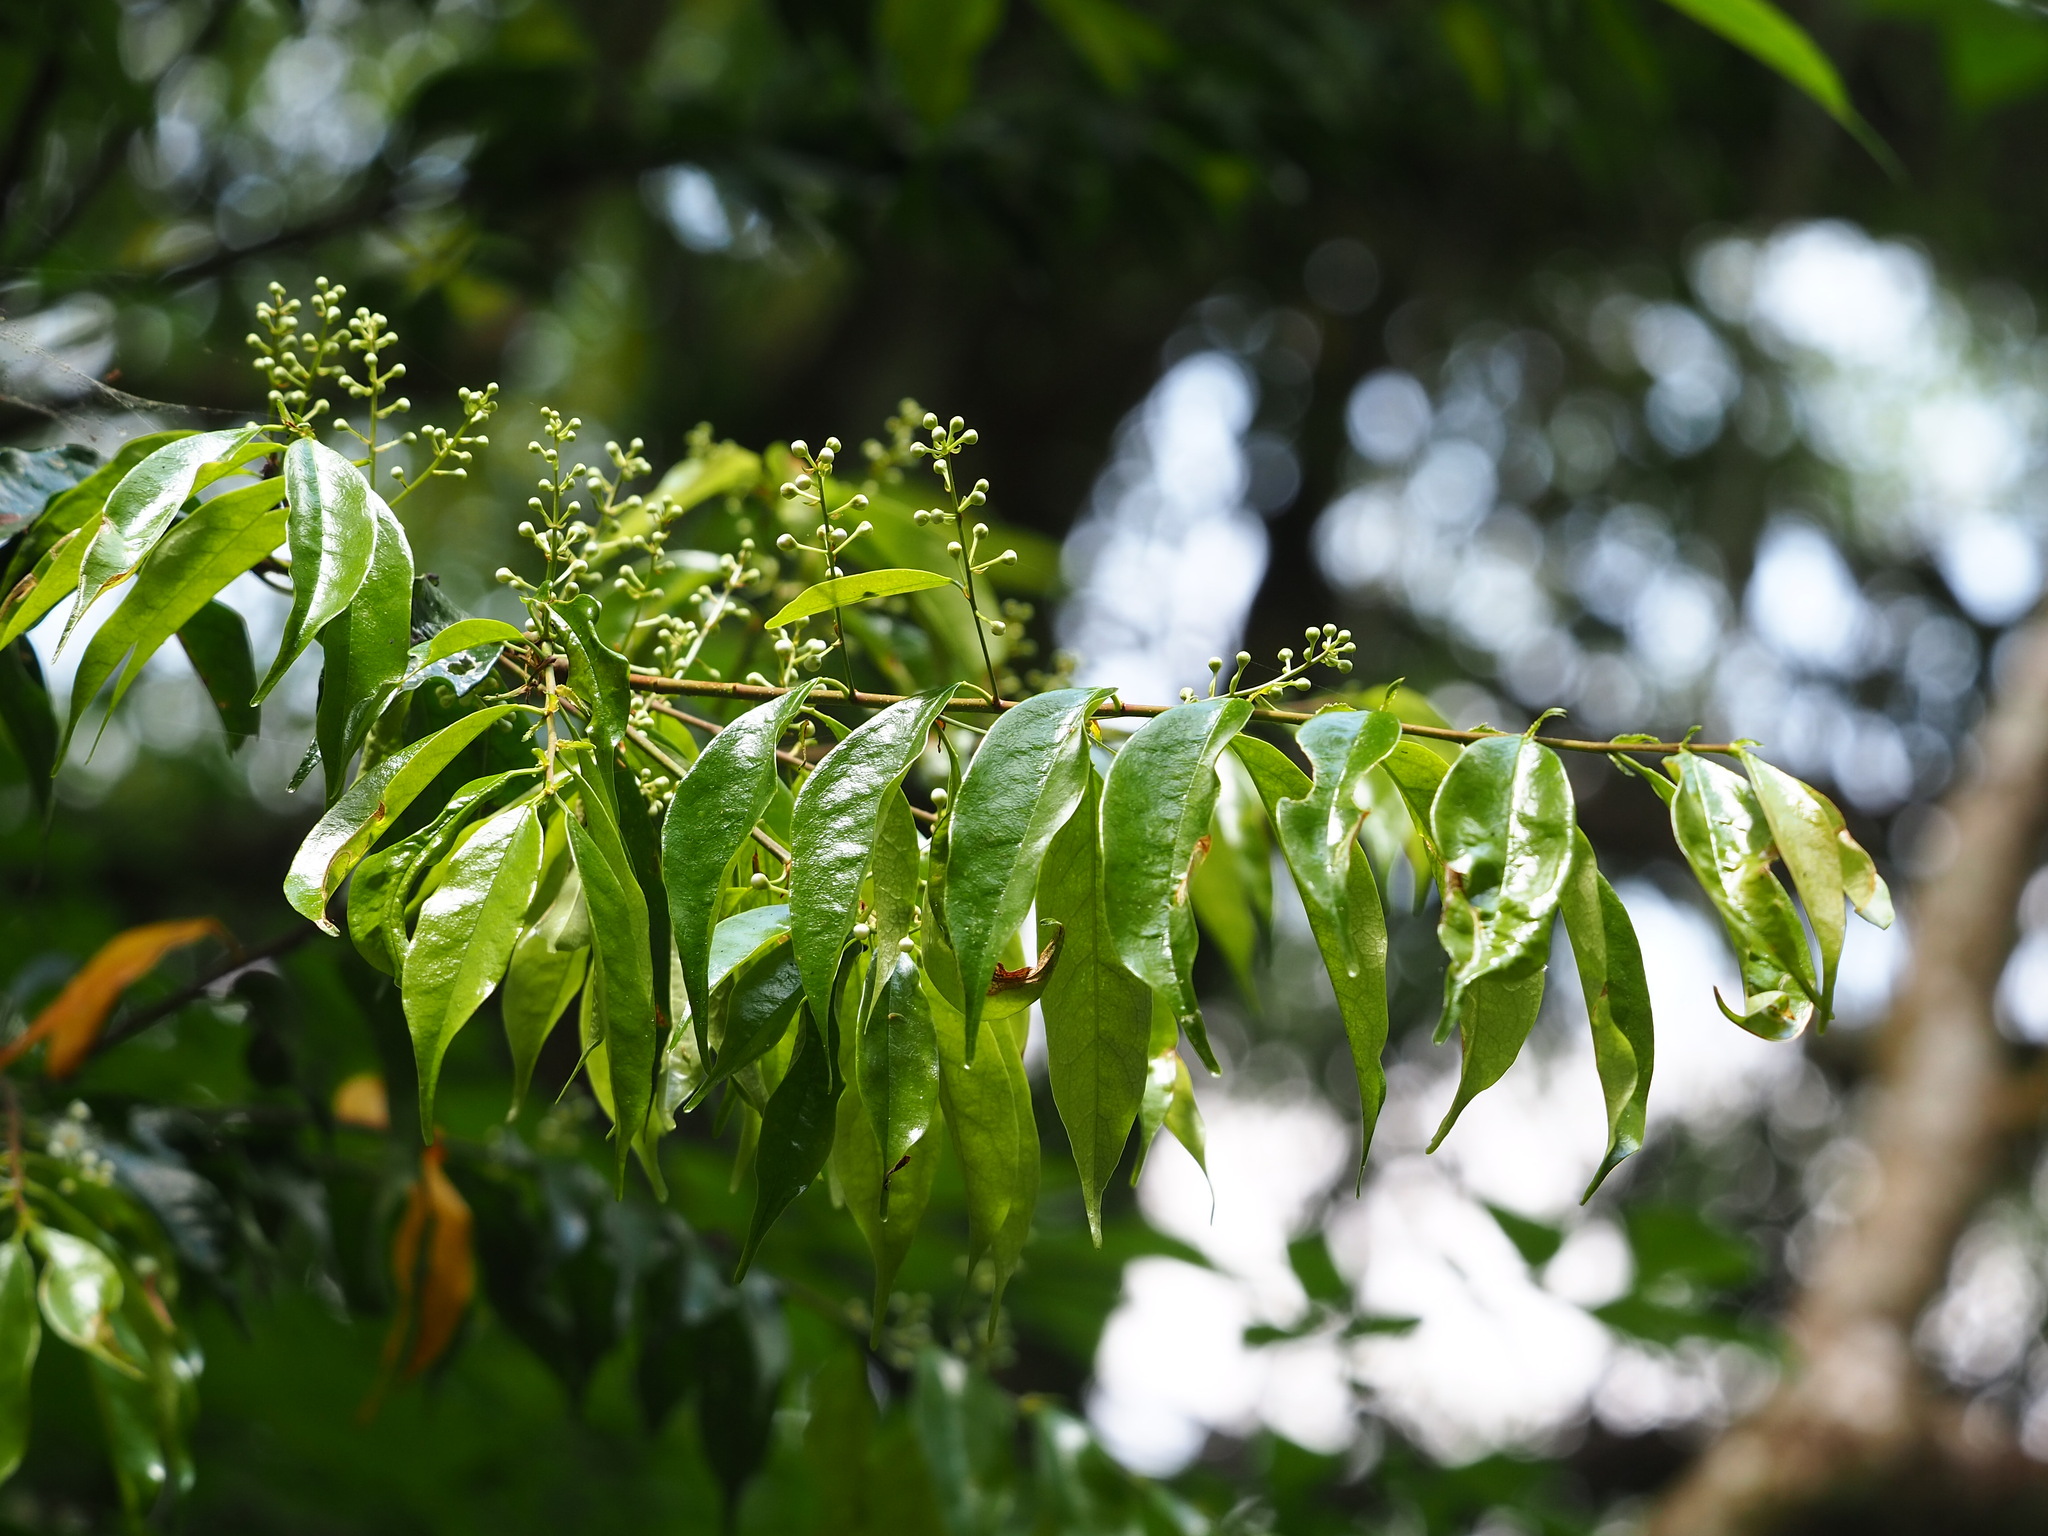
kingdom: Plantae
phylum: Tracheophyta
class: Magnoliopsida
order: Rosales
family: Rosaceae
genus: Prunus
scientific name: Prunus phaeosticta
